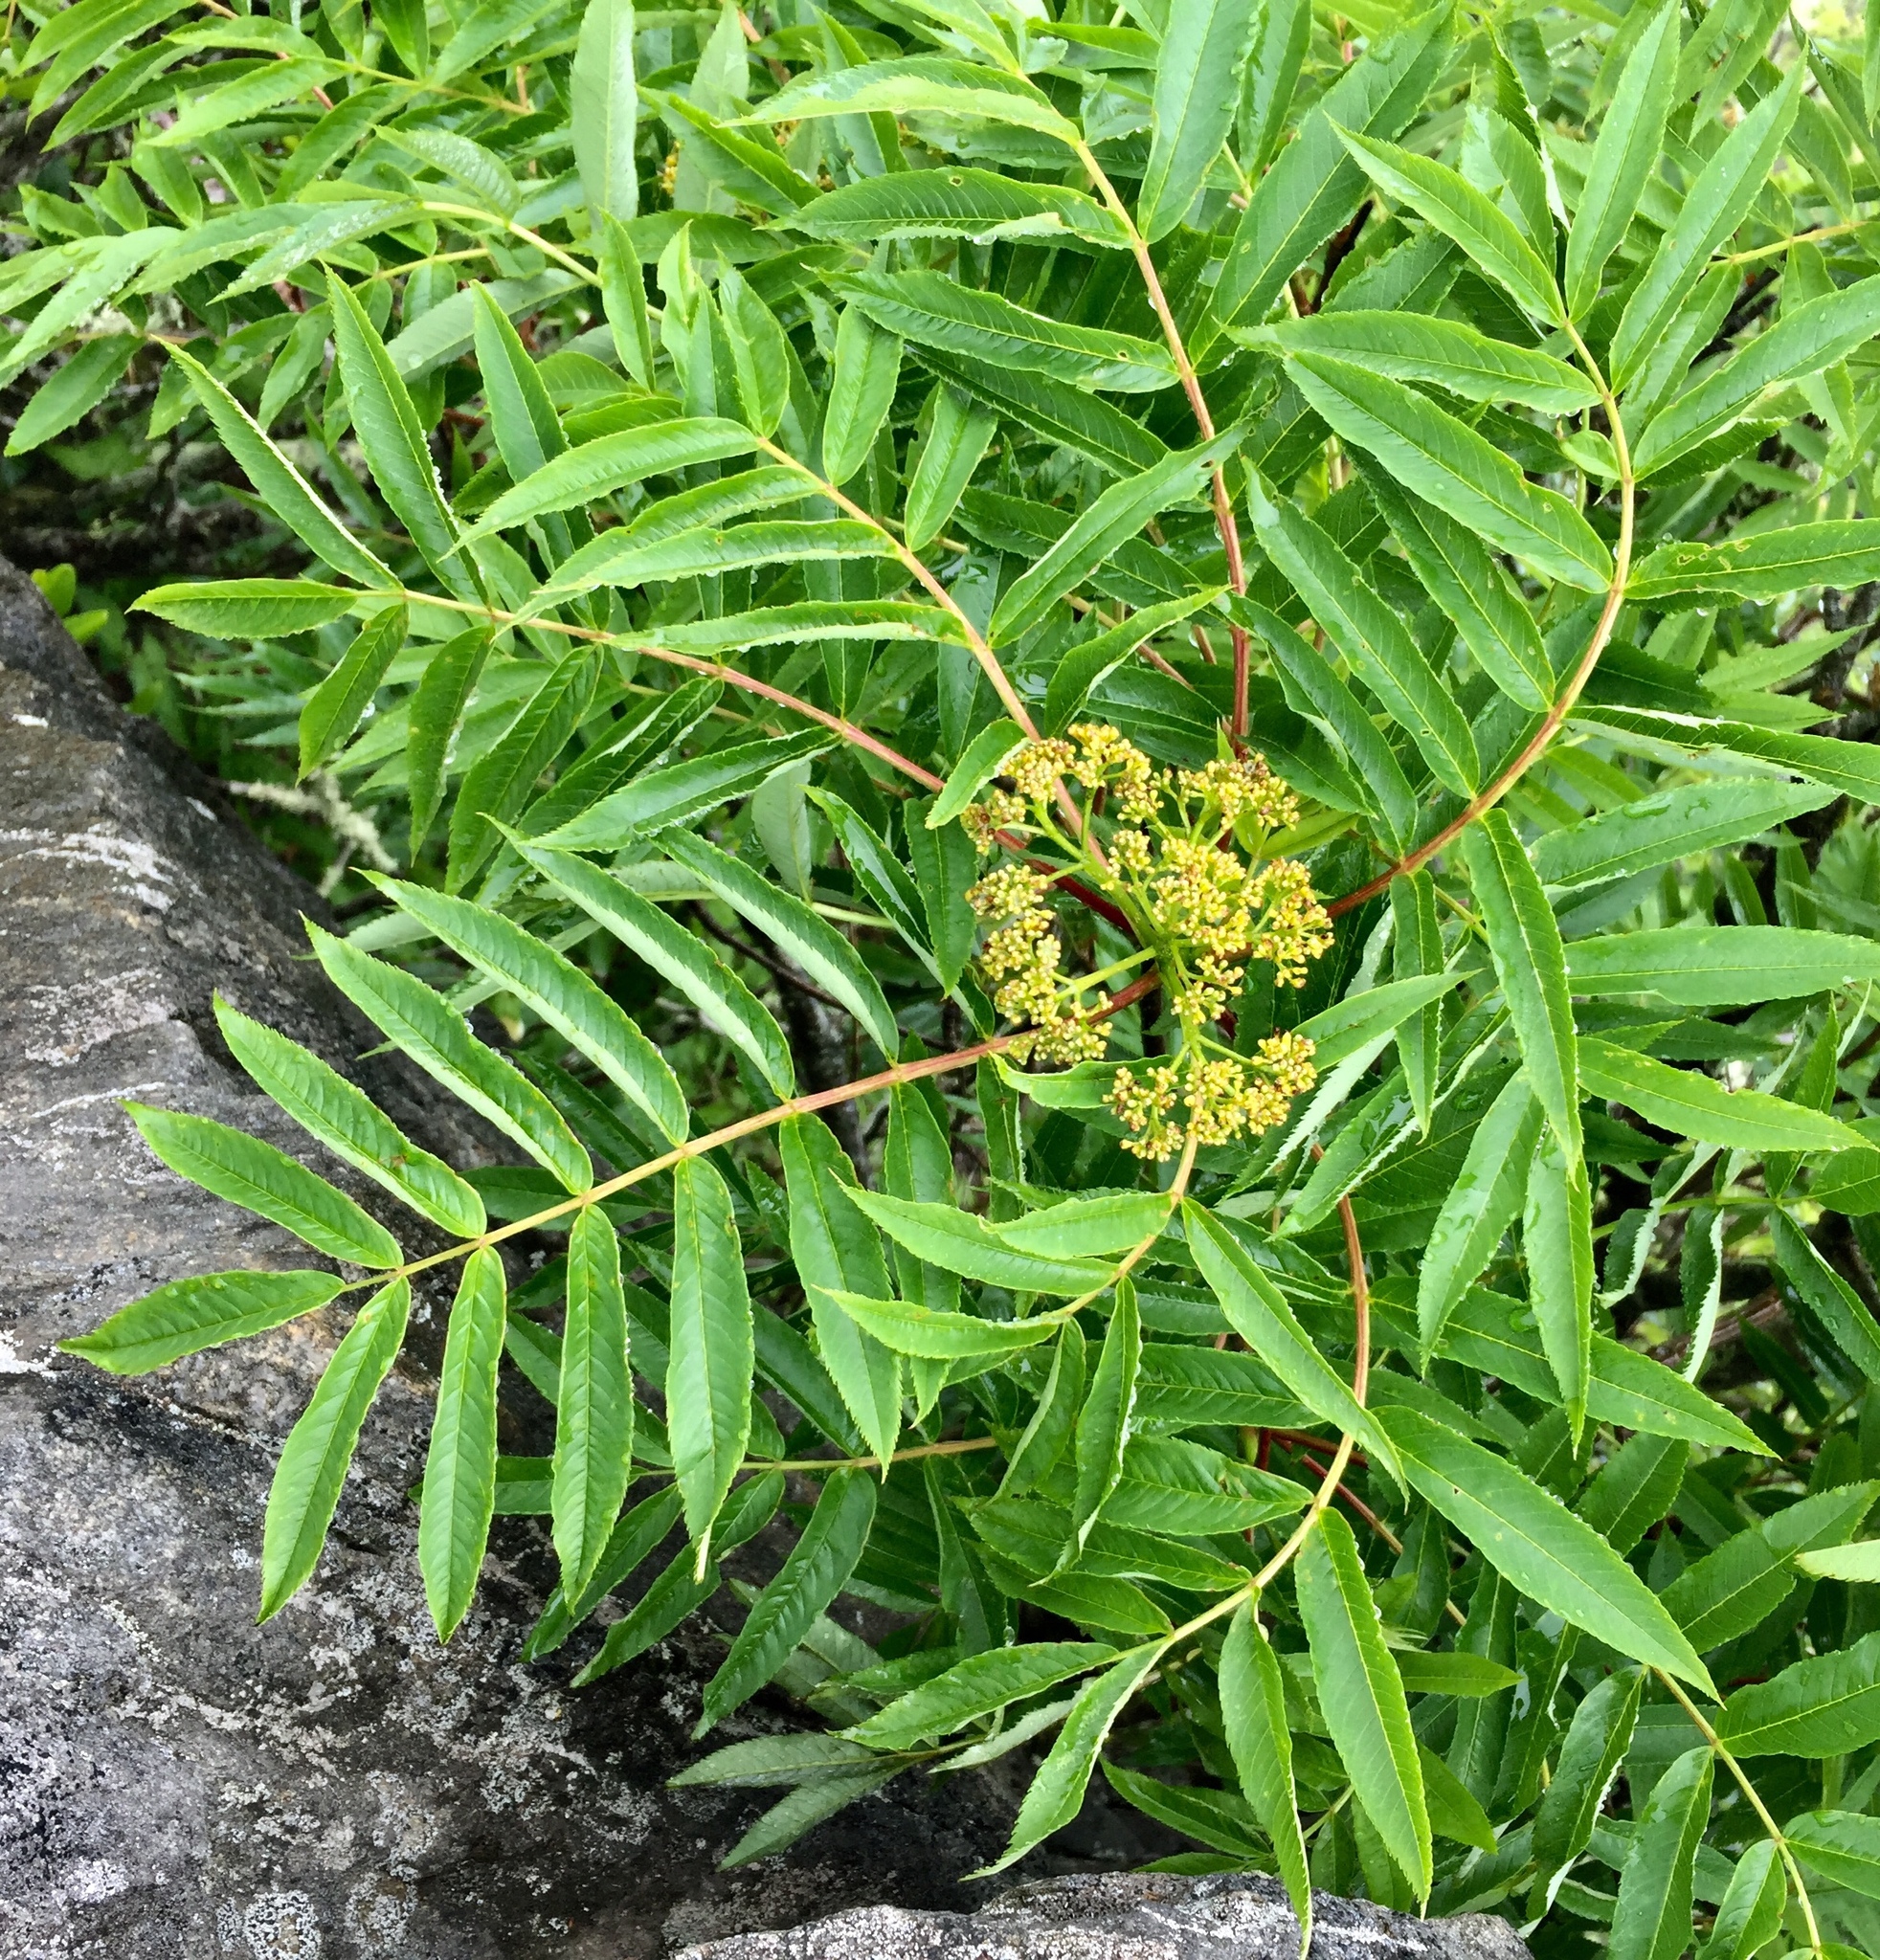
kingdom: Plantae
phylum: Tracheophyta
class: Magnoliopsida
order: Rosales
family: Rosaceae
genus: Sorbus
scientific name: Sorbus americana
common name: American mountain-ash
